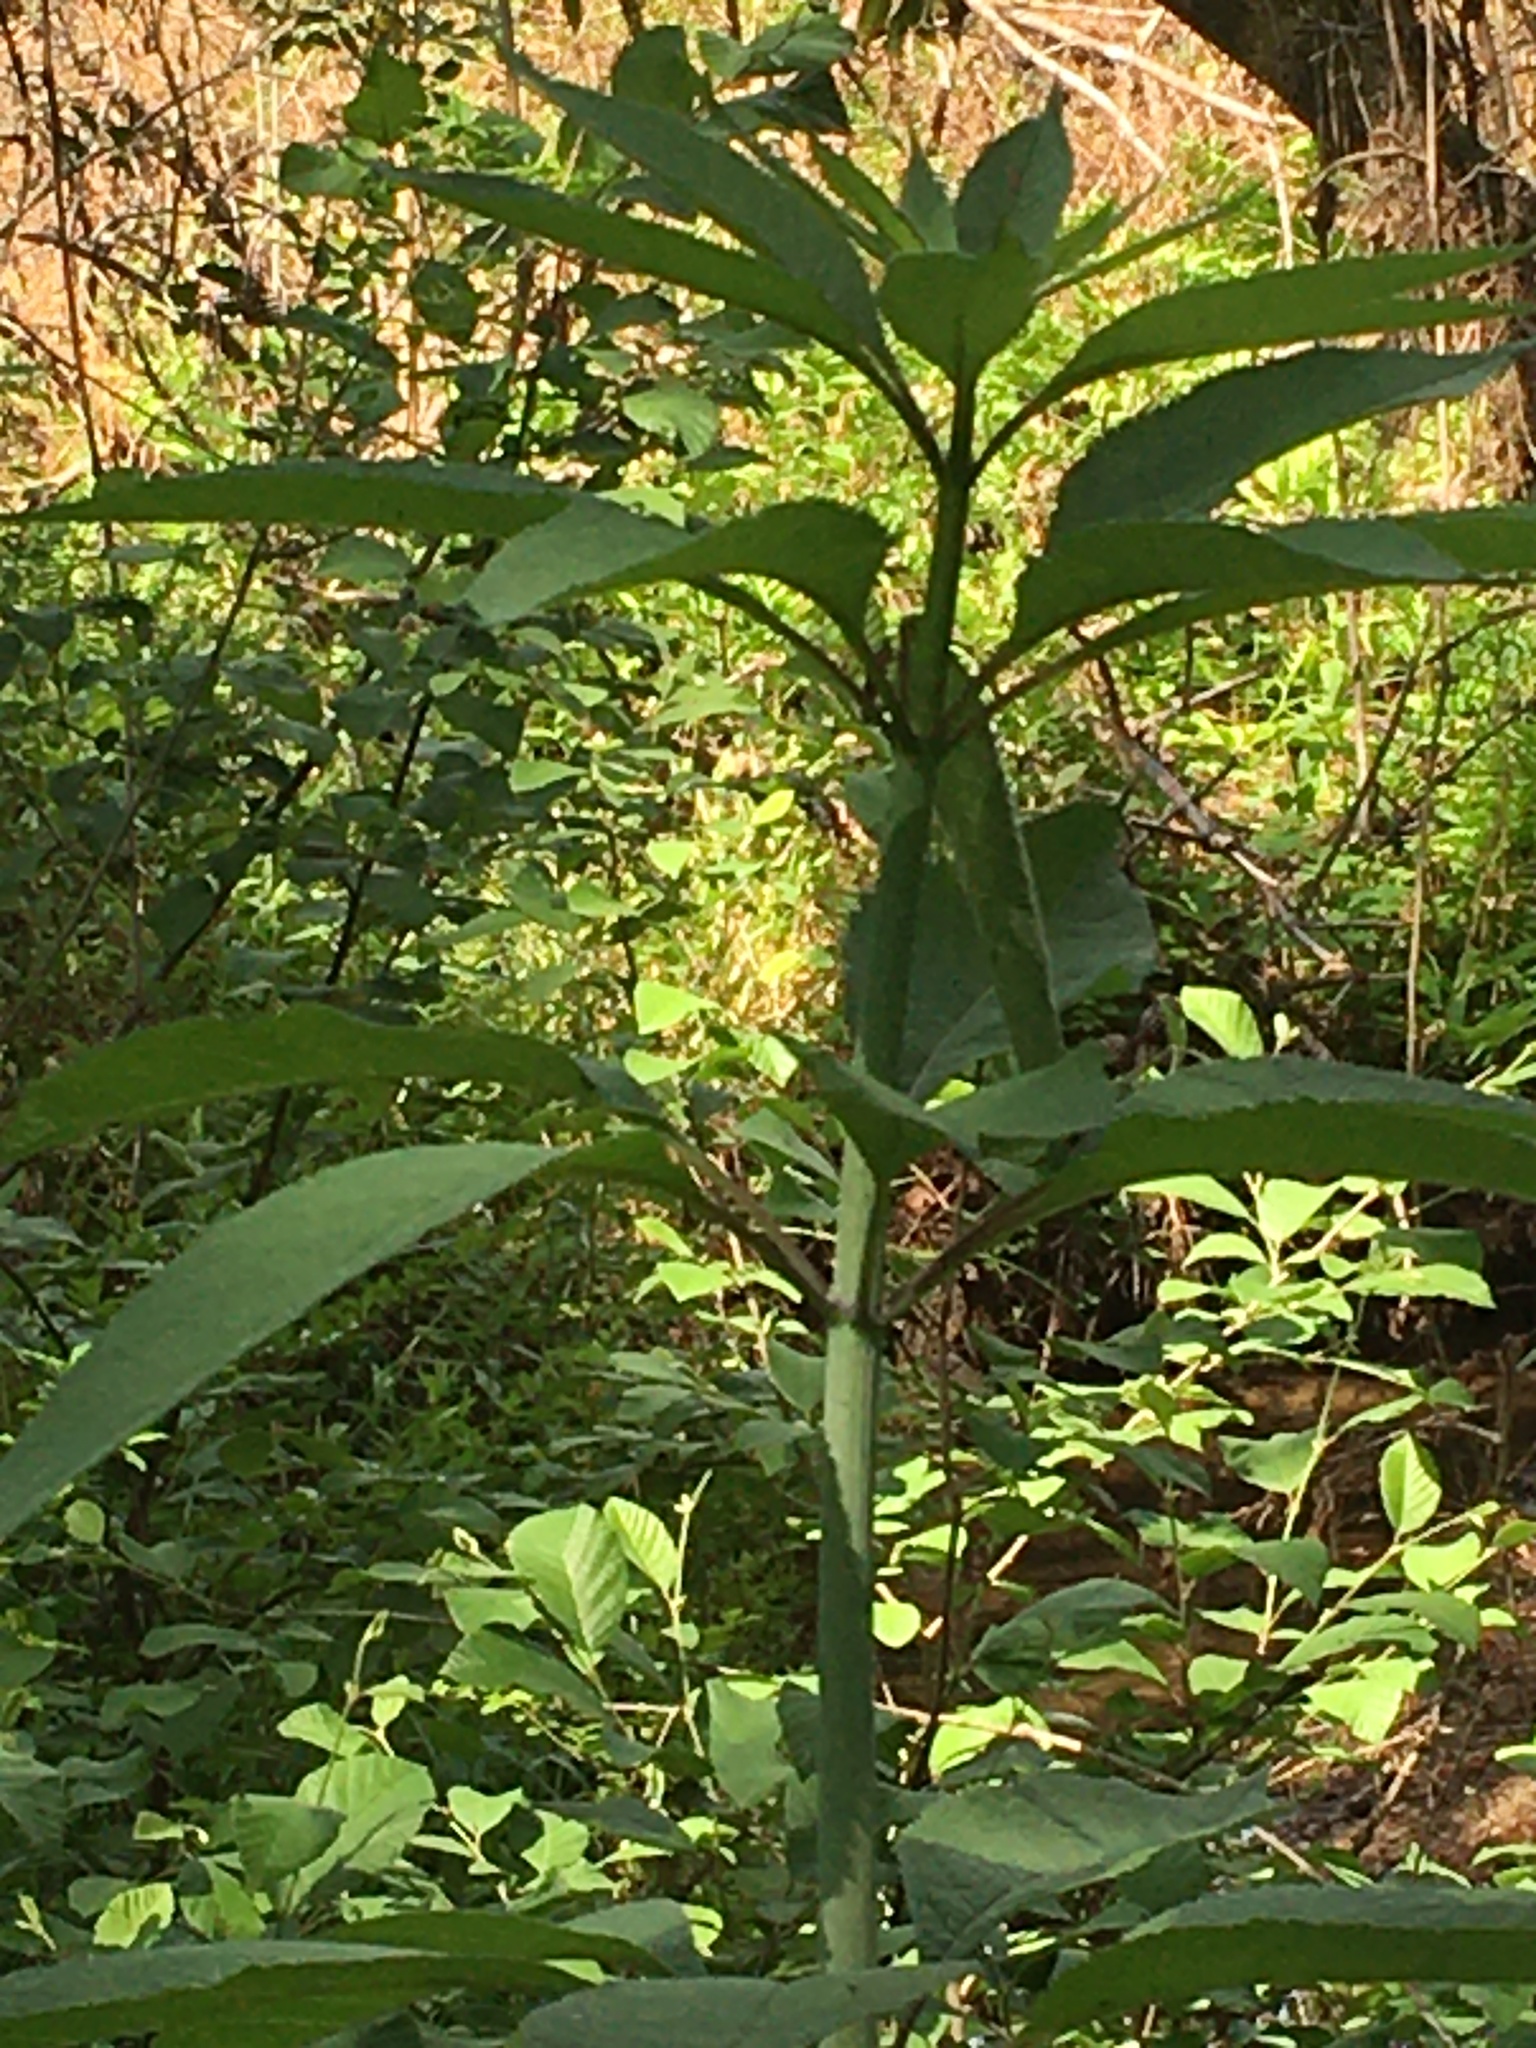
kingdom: Plantae
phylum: Tracheophyta
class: Magnoliopsida
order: Asterales
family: Asteraceae
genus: Eutrochium
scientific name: Eutrochium fistulosum
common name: Trumpetweed
